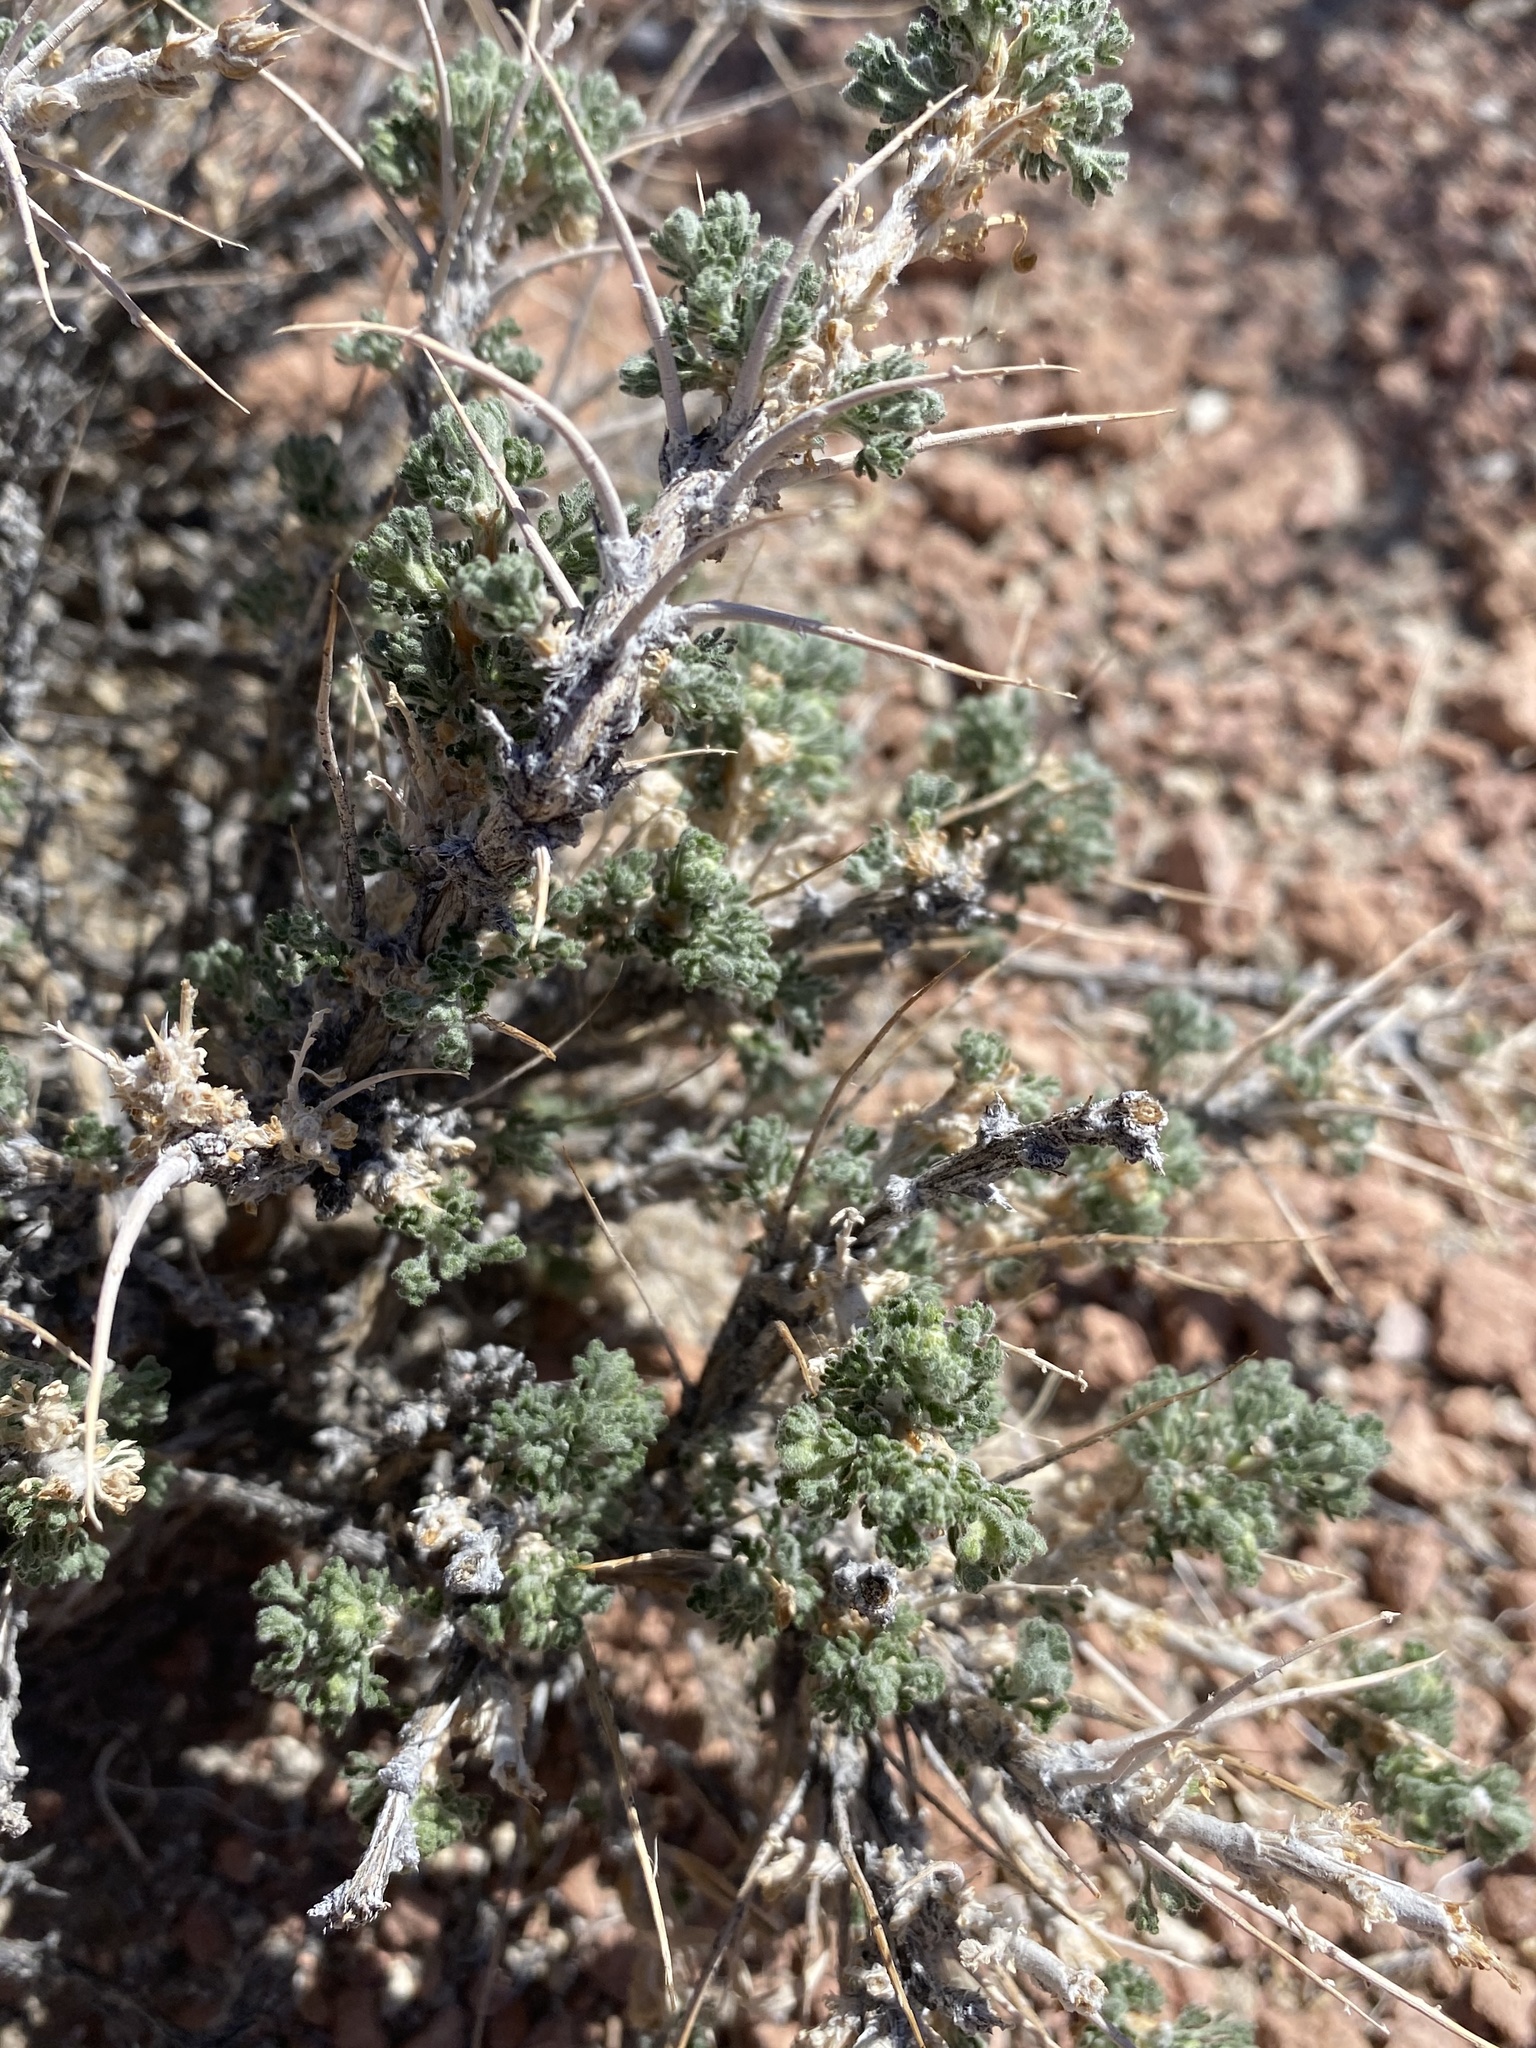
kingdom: Plantae
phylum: Tracheophyta
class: Magnoliopsida
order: Asterales
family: Asteraceae
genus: Artemisia
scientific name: Artemisia spinescens
